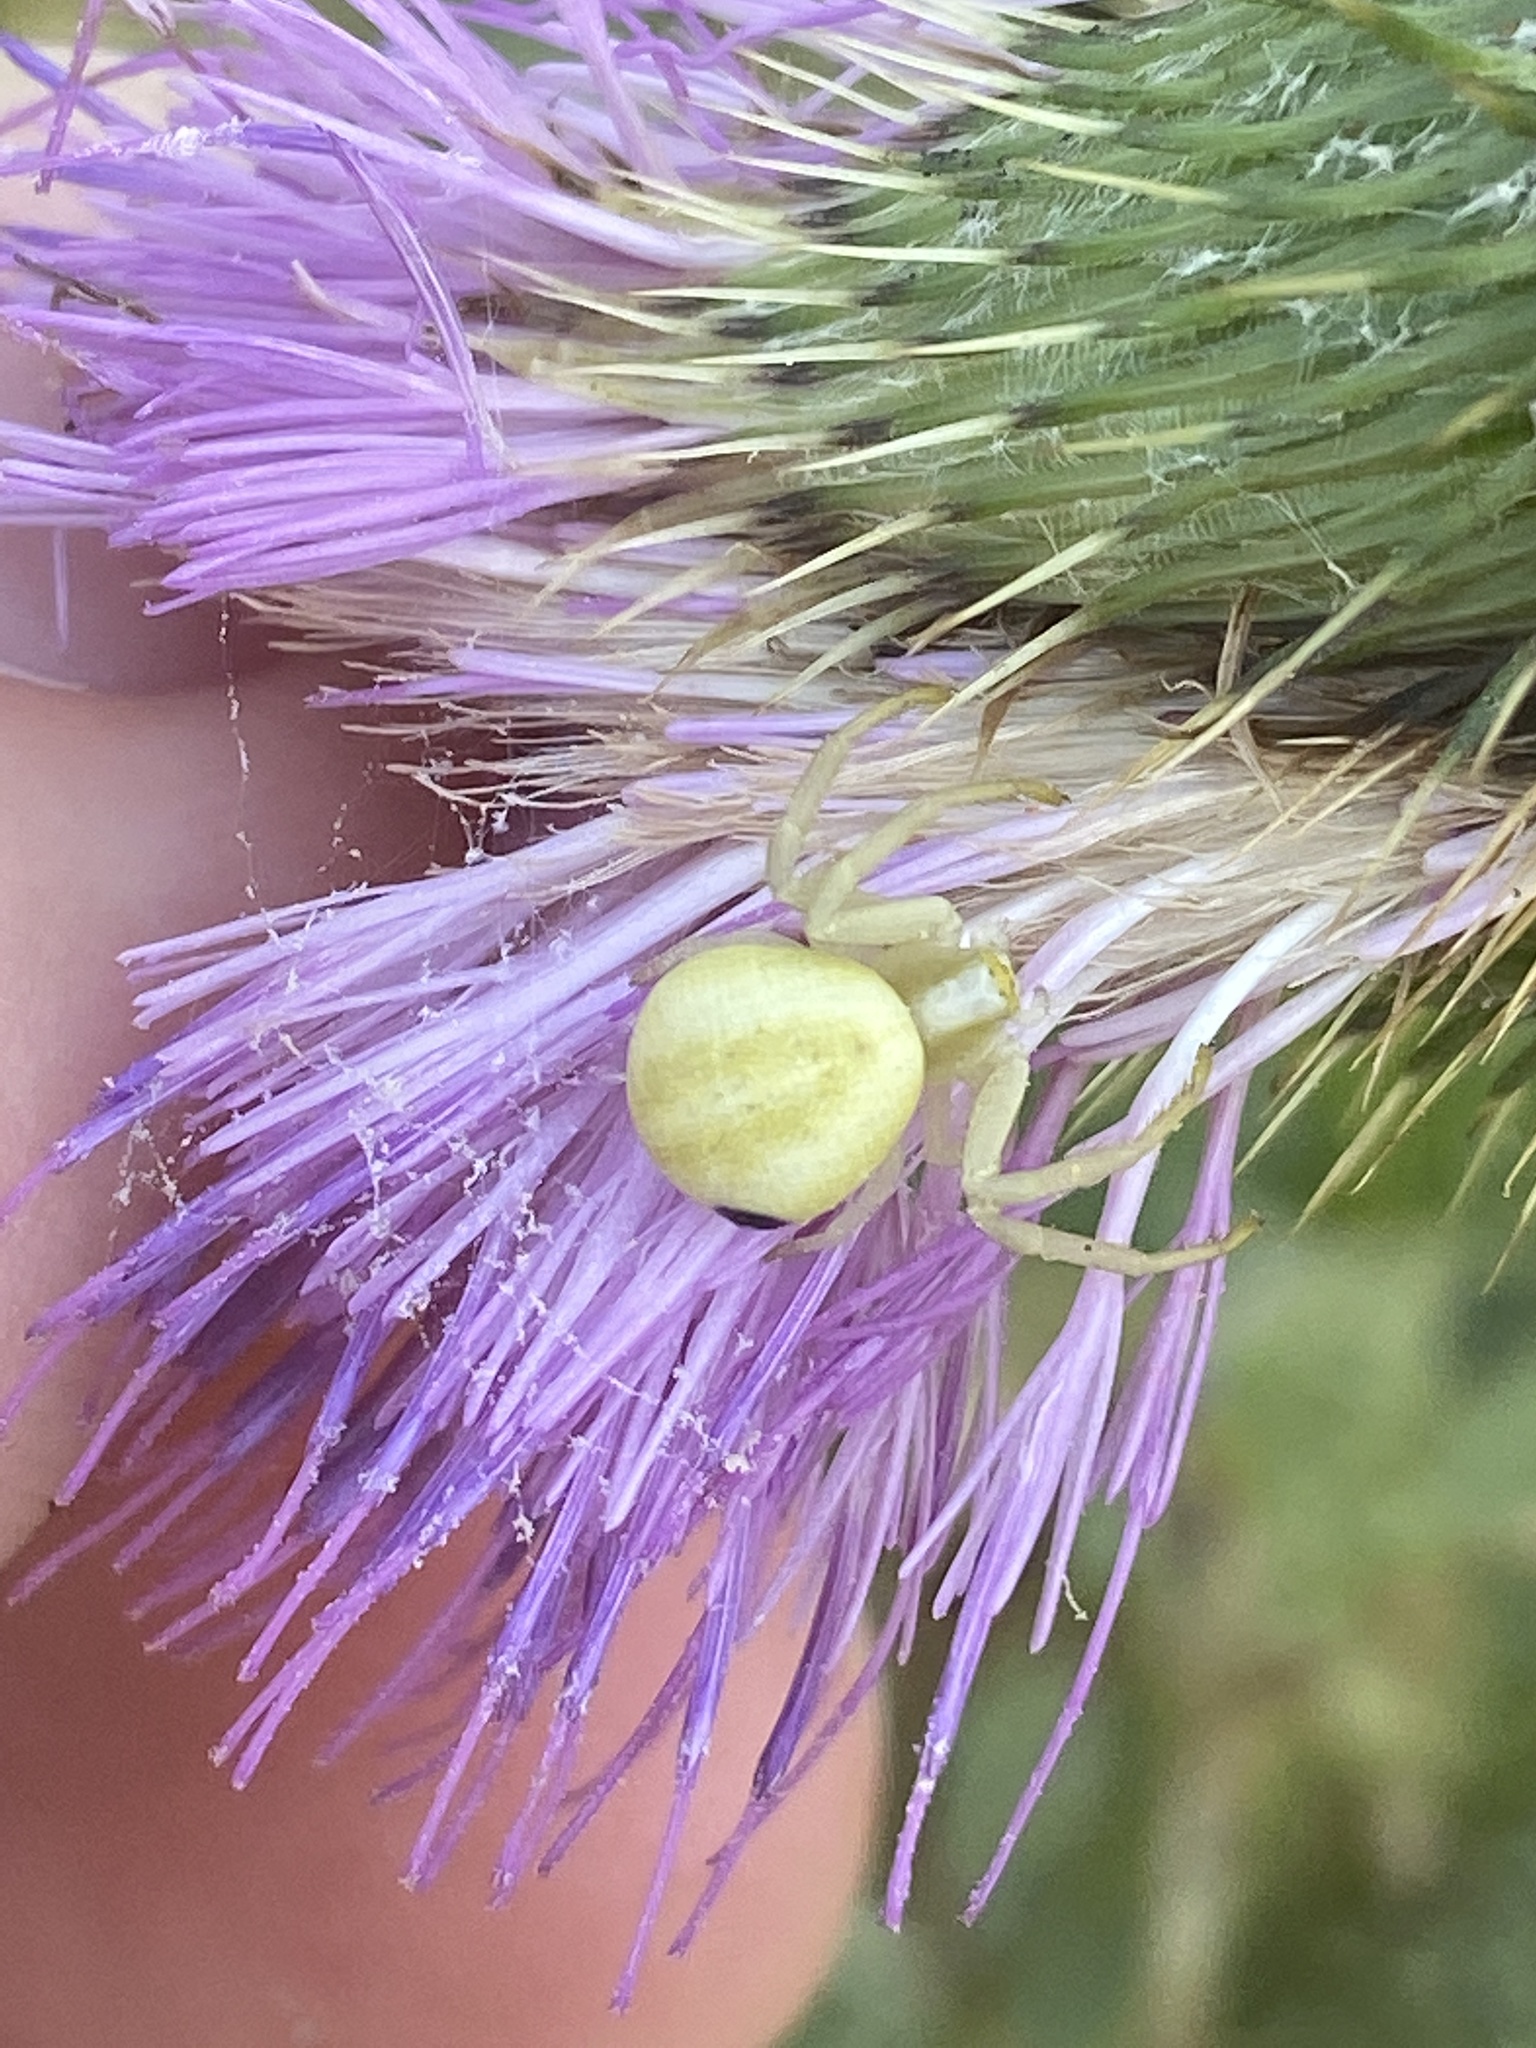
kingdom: Animalia
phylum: Arthropoda
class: Arachnida
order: Araneae
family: Thomisidae
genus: Misumena
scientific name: Misumena vatia
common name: Goldenrod crab spider
